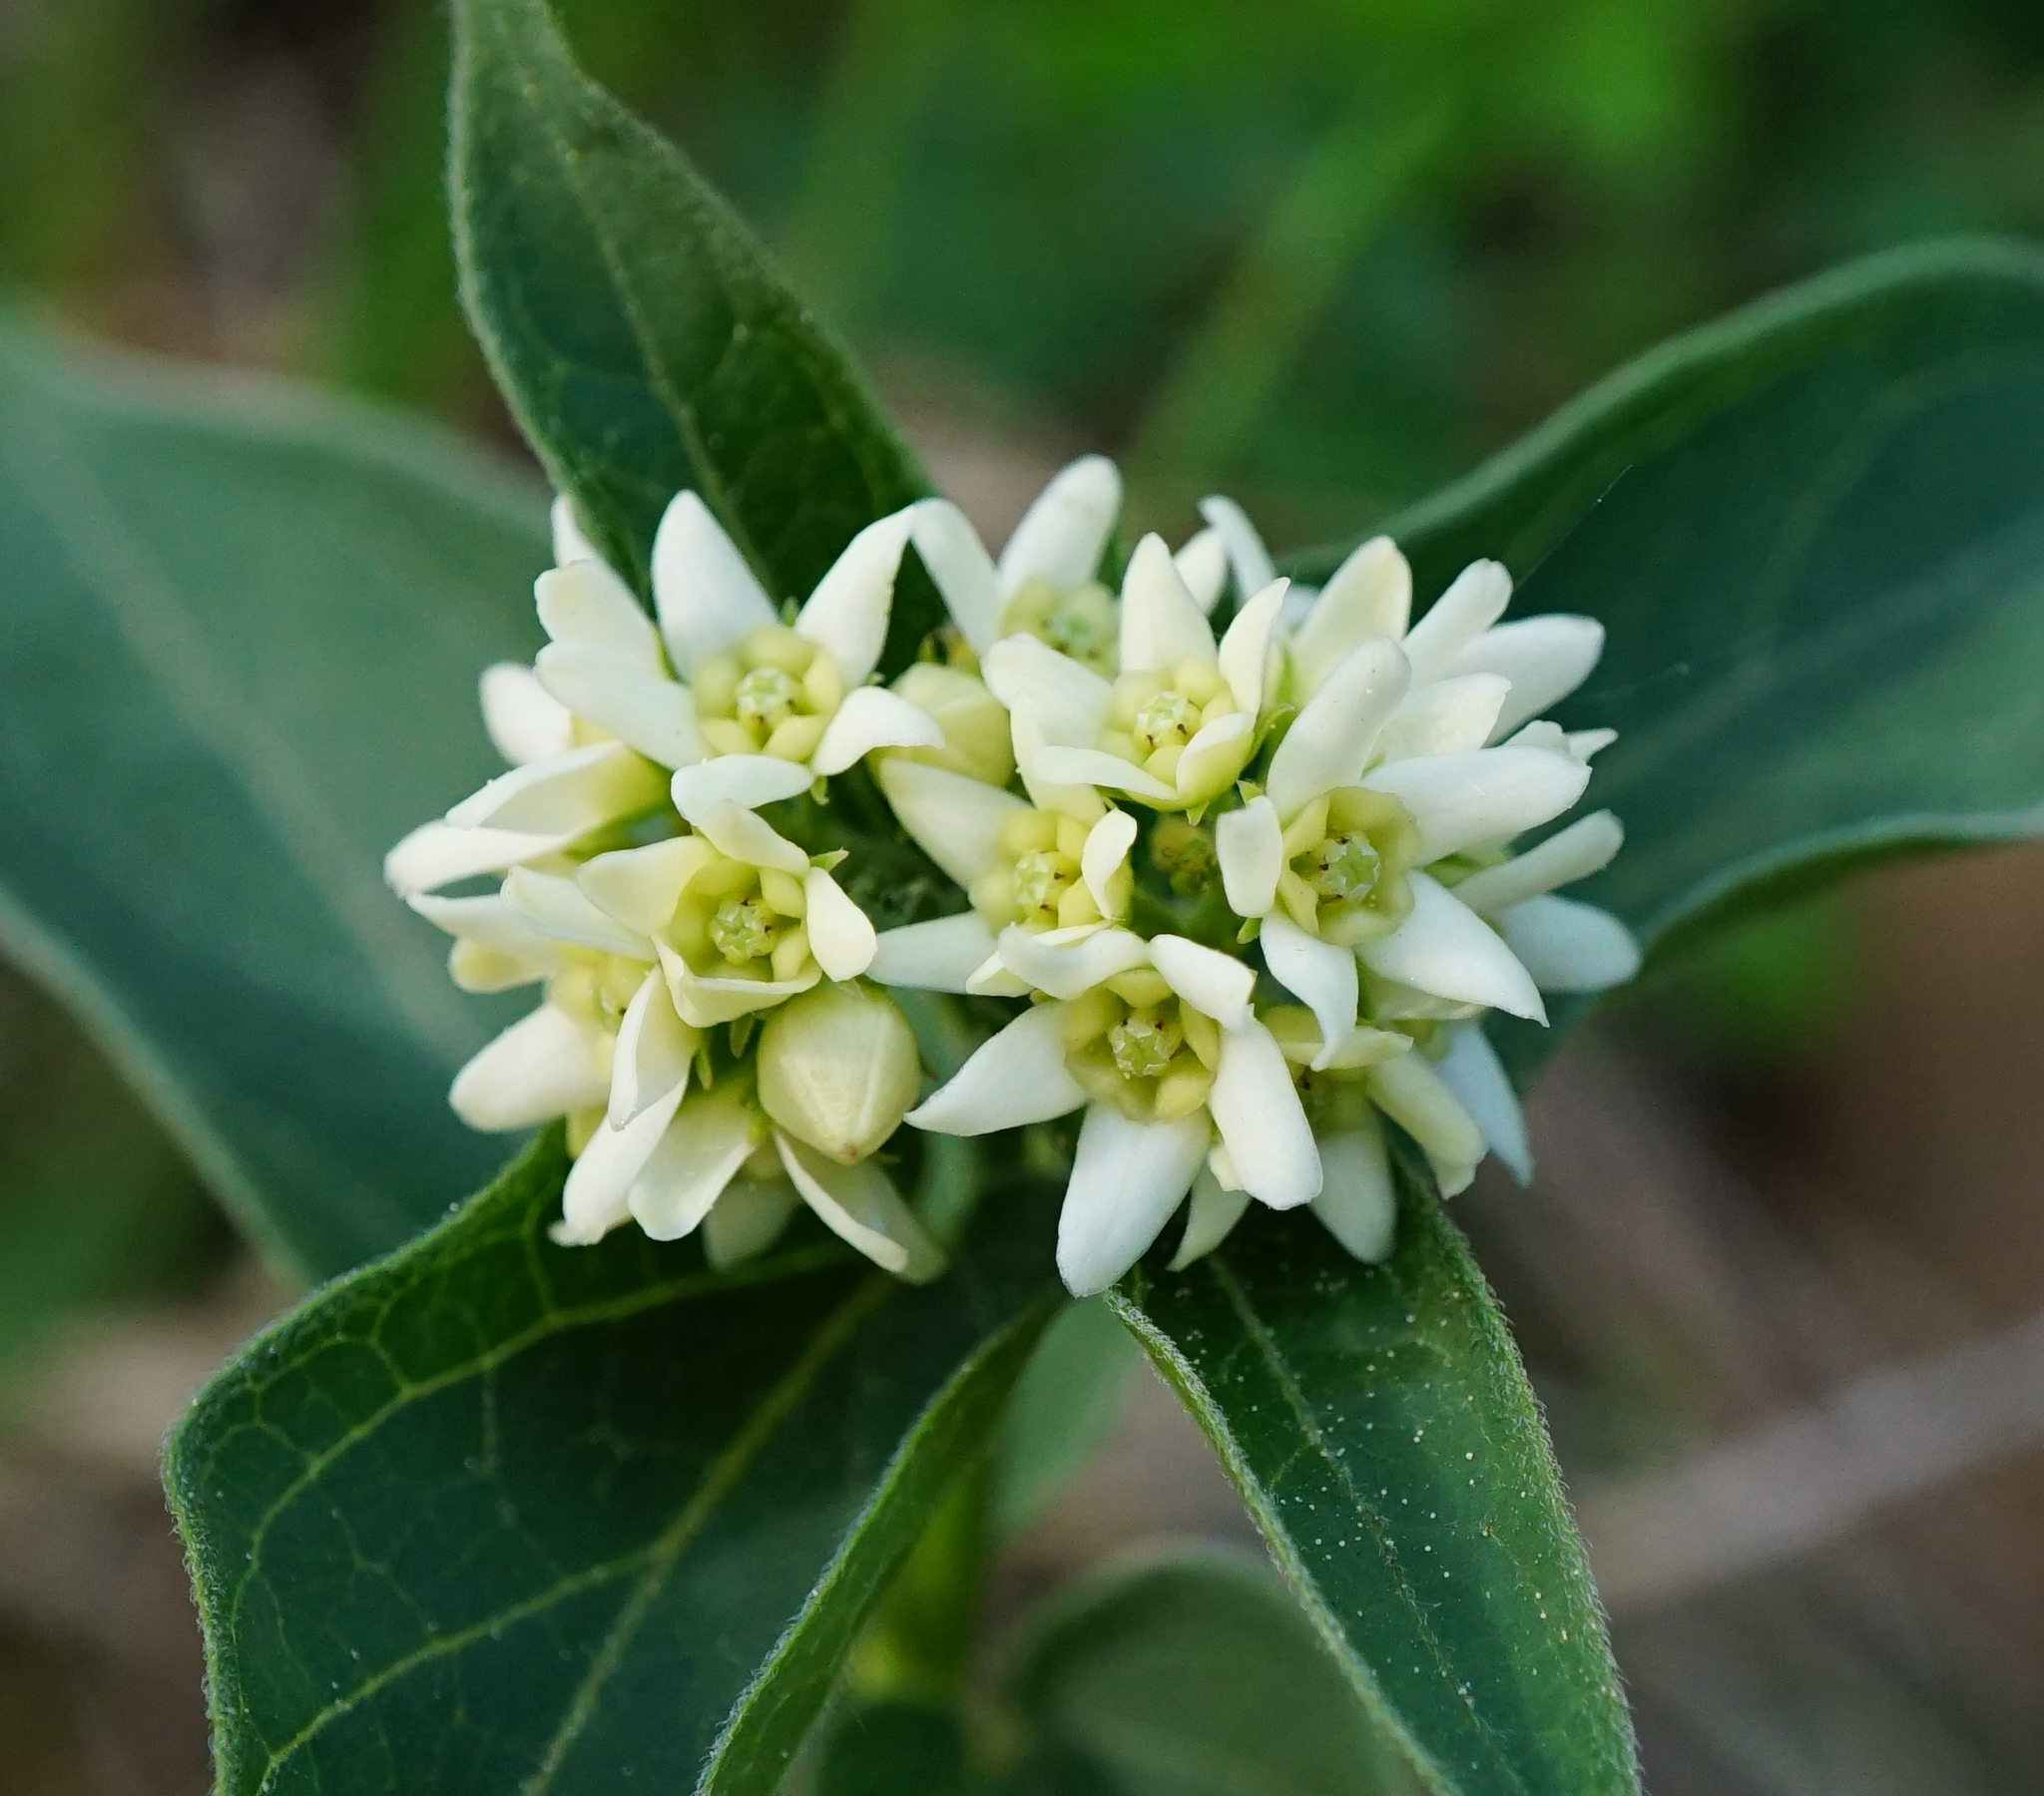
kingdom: Plantae
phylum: Tracheophyta
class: Magnoliopsida
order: Gentianales
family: Apocynaceae
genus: Vincetoxicum
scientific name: Vincetoxicum hirundinaria
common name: White swallowwort
